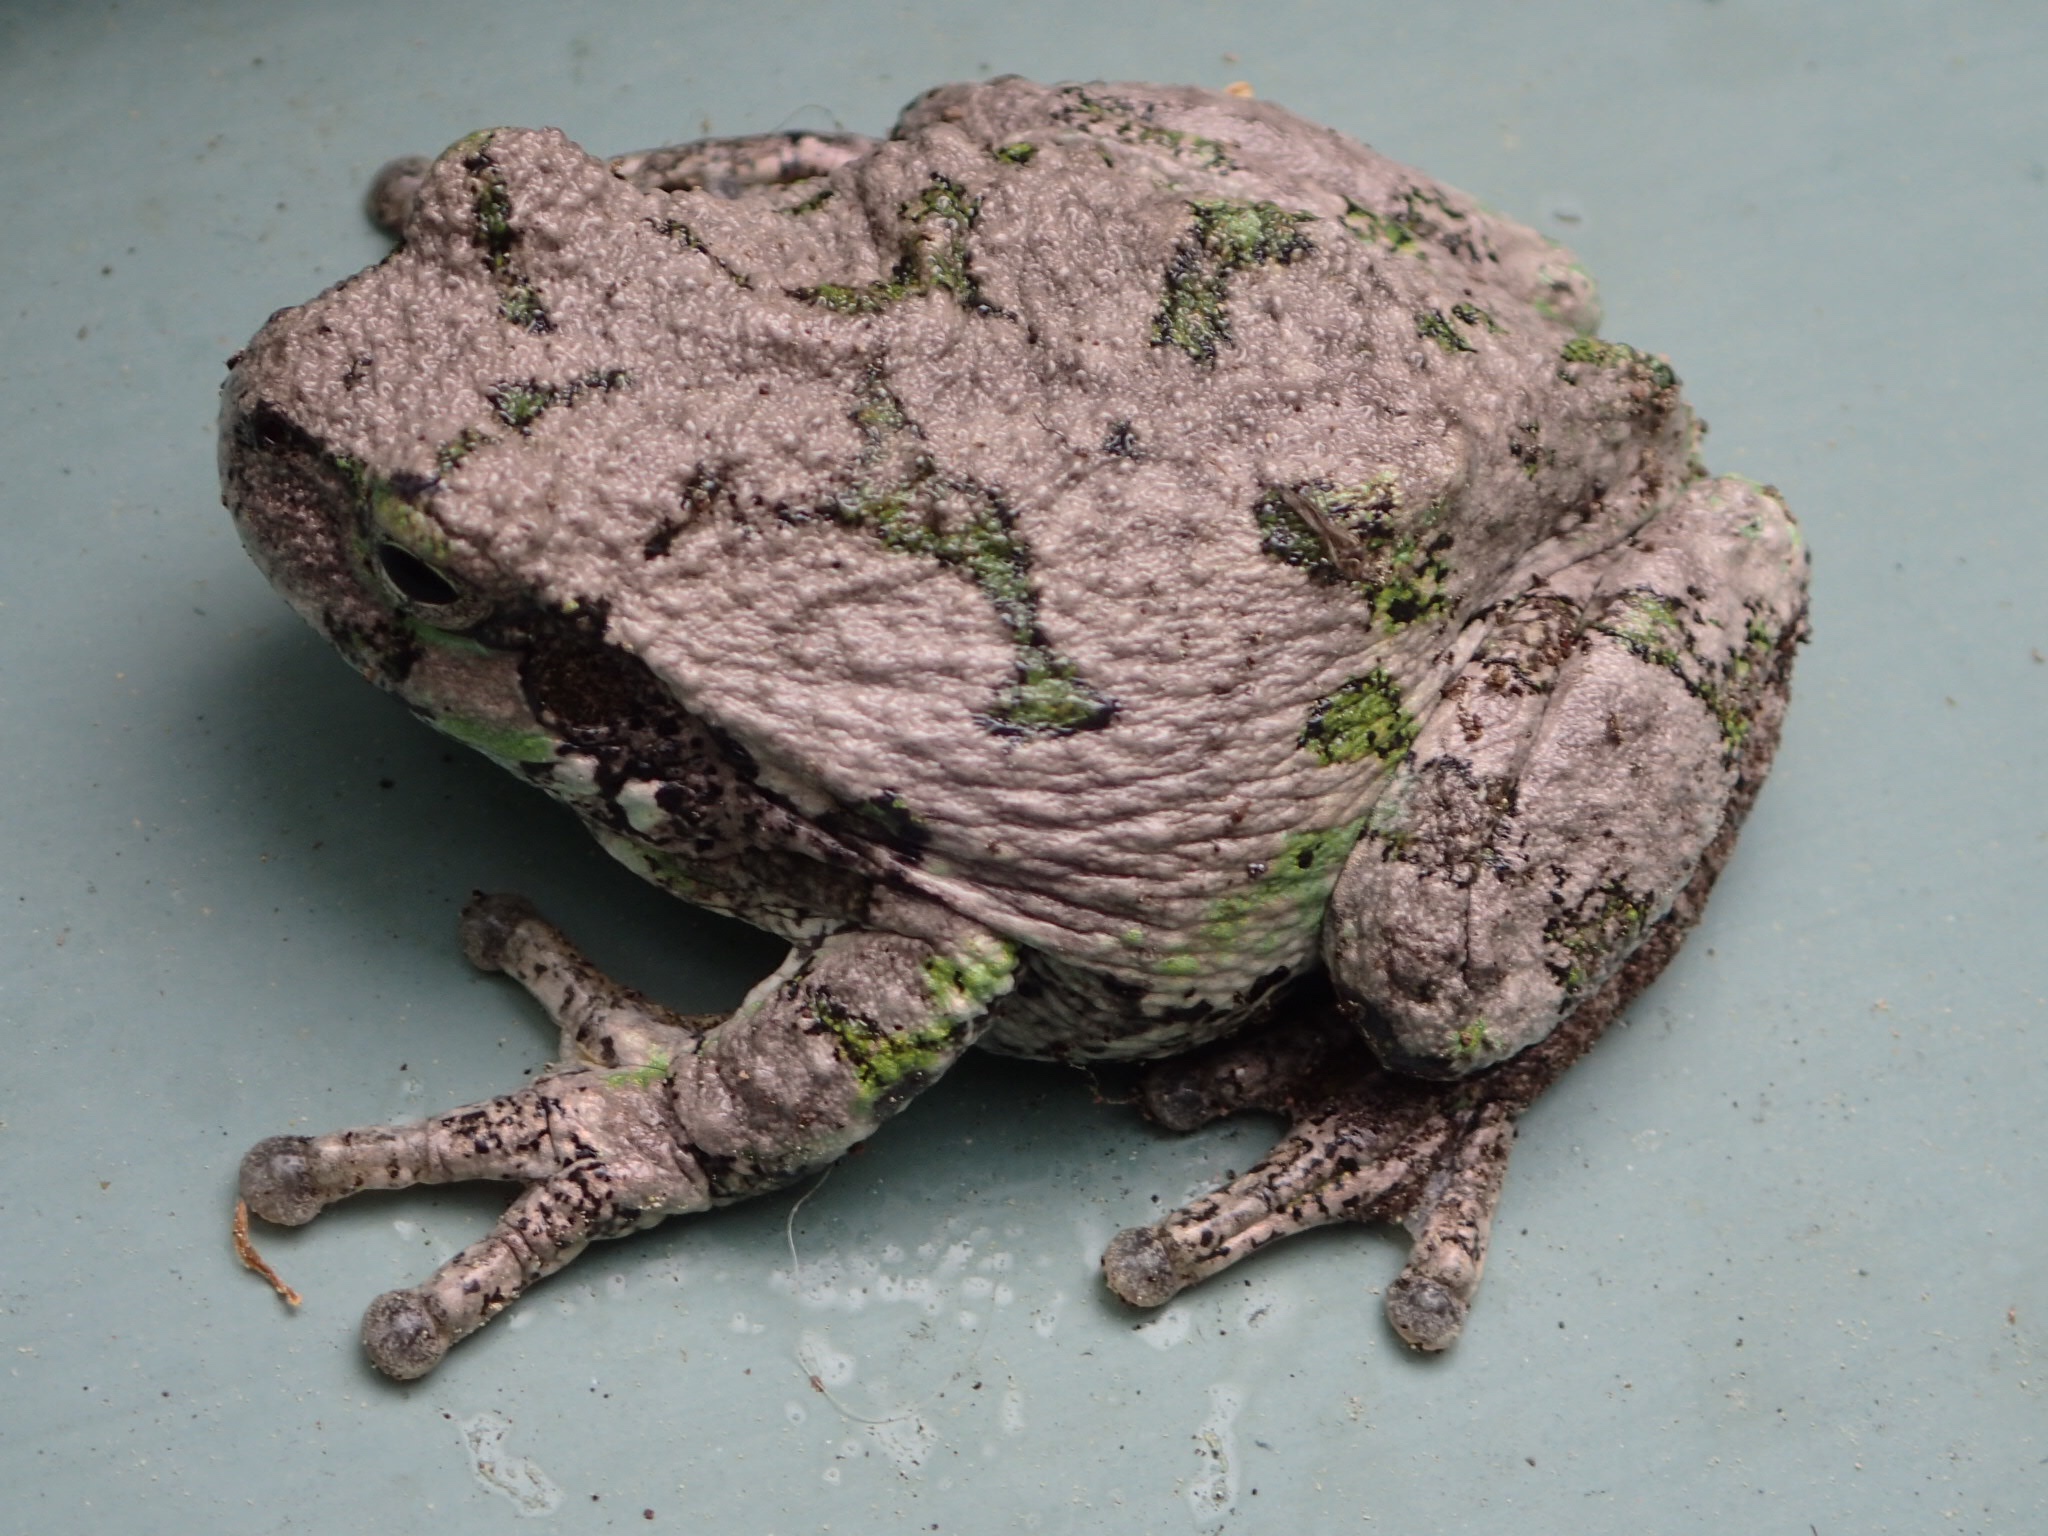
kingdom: Animalia
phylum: Chordata
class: Amphibia
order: Anura
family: Hylidae
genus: Dryophytes
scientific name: Dryophytes versicolor
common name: Gray treefrog
